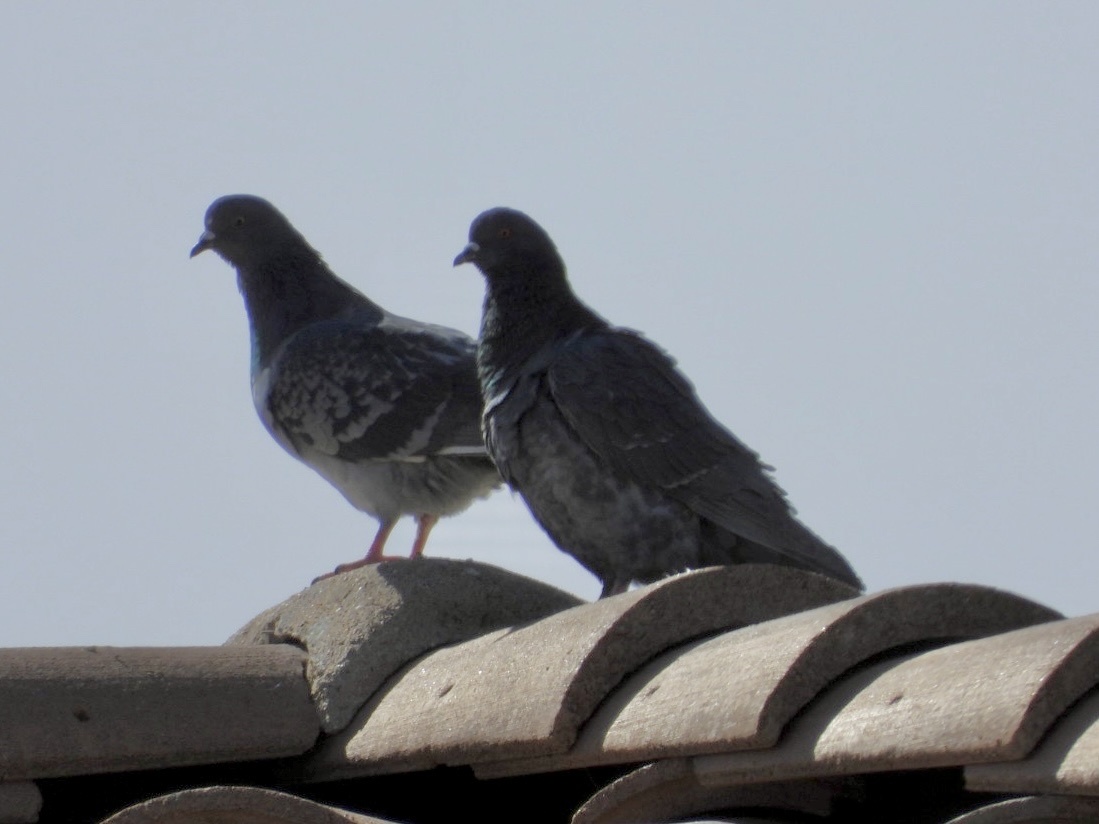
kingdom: Animalia
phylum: Chordata
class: Aves
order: Columbiformes
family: Columbidae
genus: Columba
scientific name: Columba livia
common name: Rock pigeon
